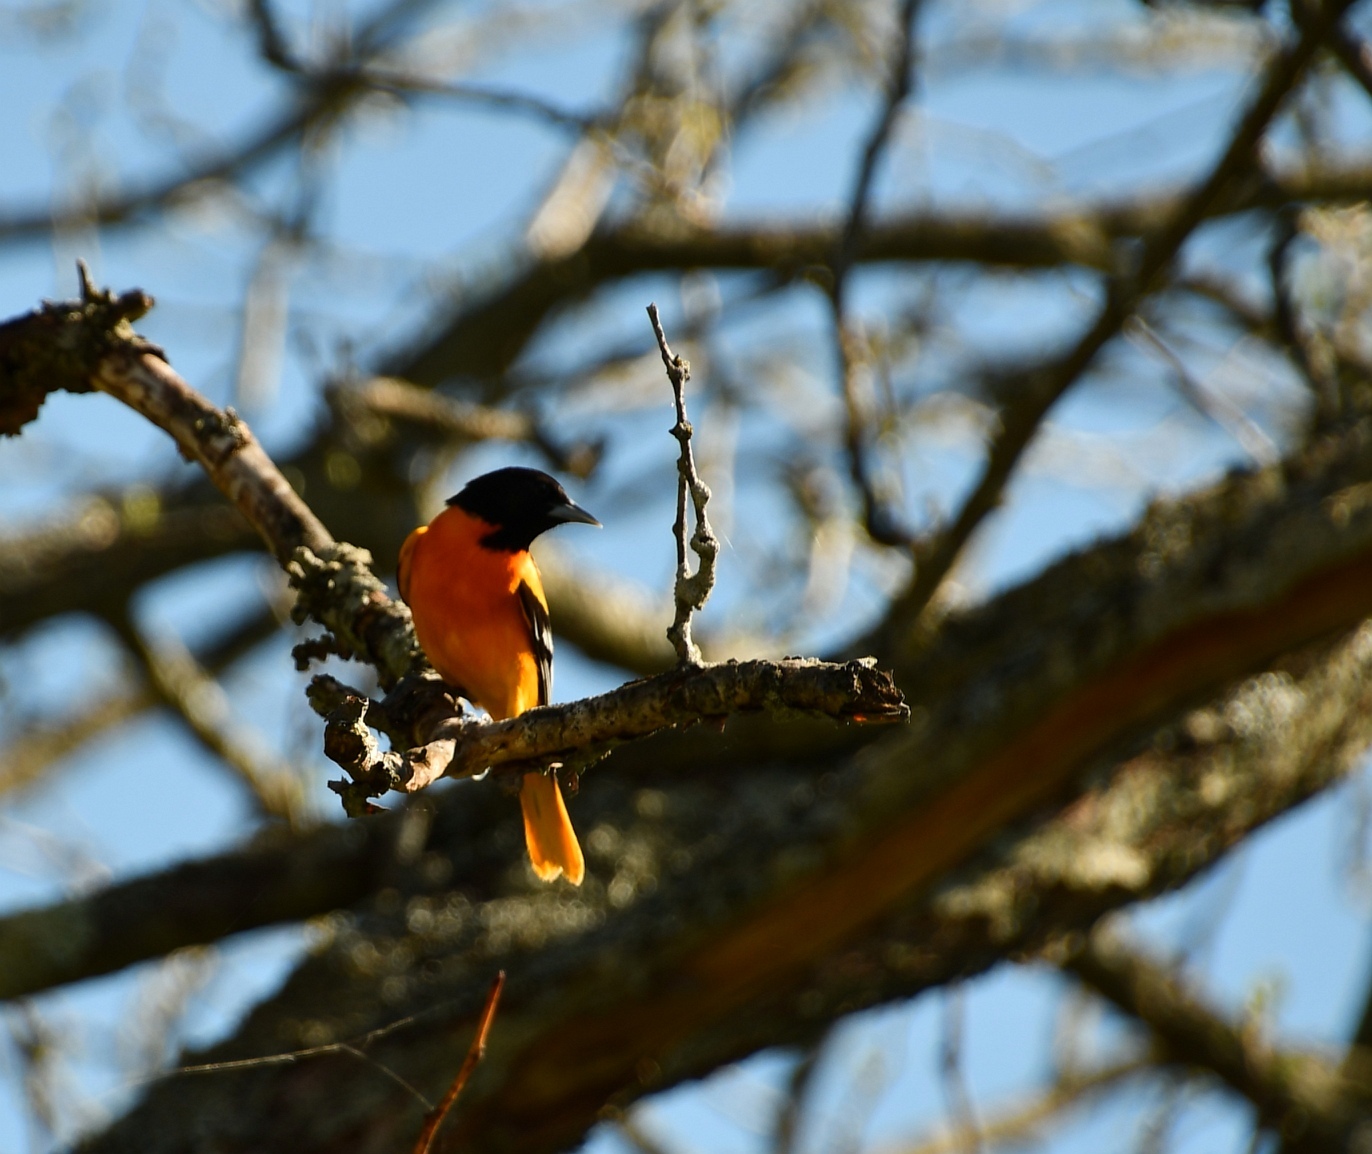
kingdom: Animalia
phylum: Chordata
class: Aves
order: Passeriformes
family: Icteridae
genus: Icterus
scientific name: Icterus galbula
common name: Baltimore oriole
